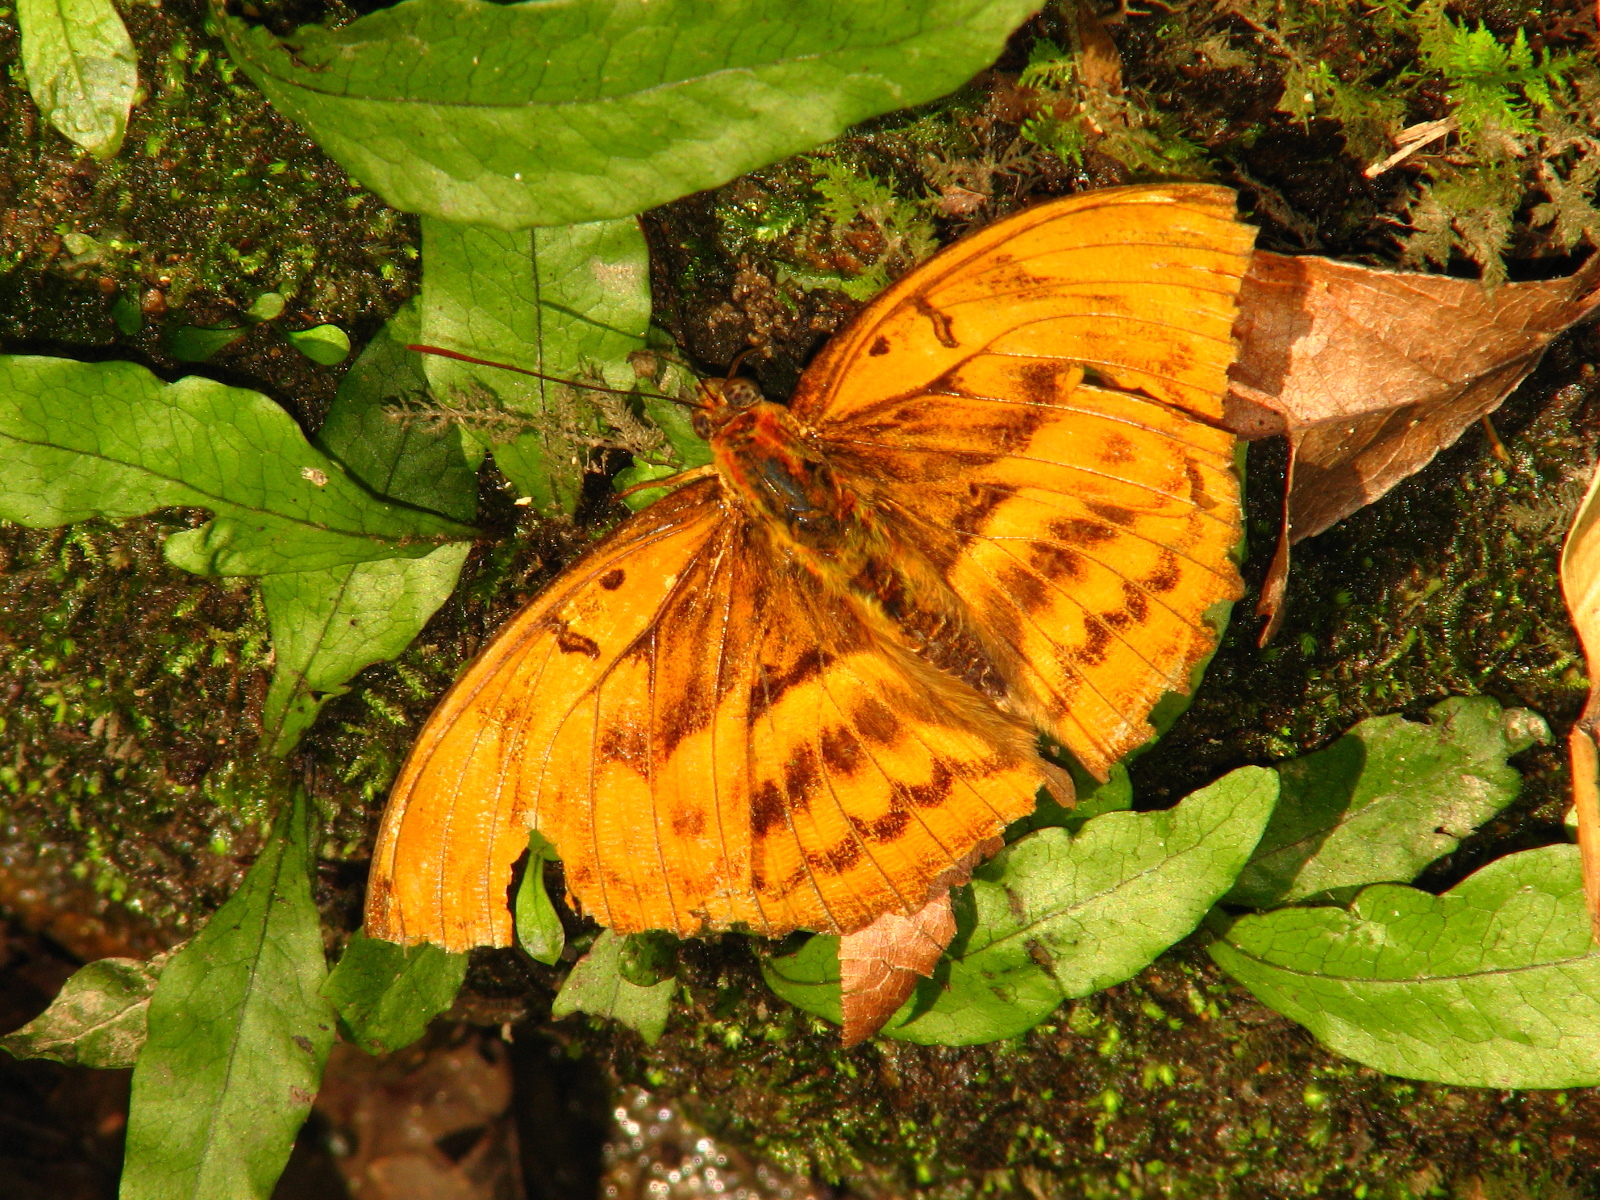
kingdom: Animalia
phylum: Arthropoda
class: Insecta
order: Lepidoptera
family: Nymphalidae
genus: Abrota
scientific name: Abrota ganga
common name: Sergeant-major
